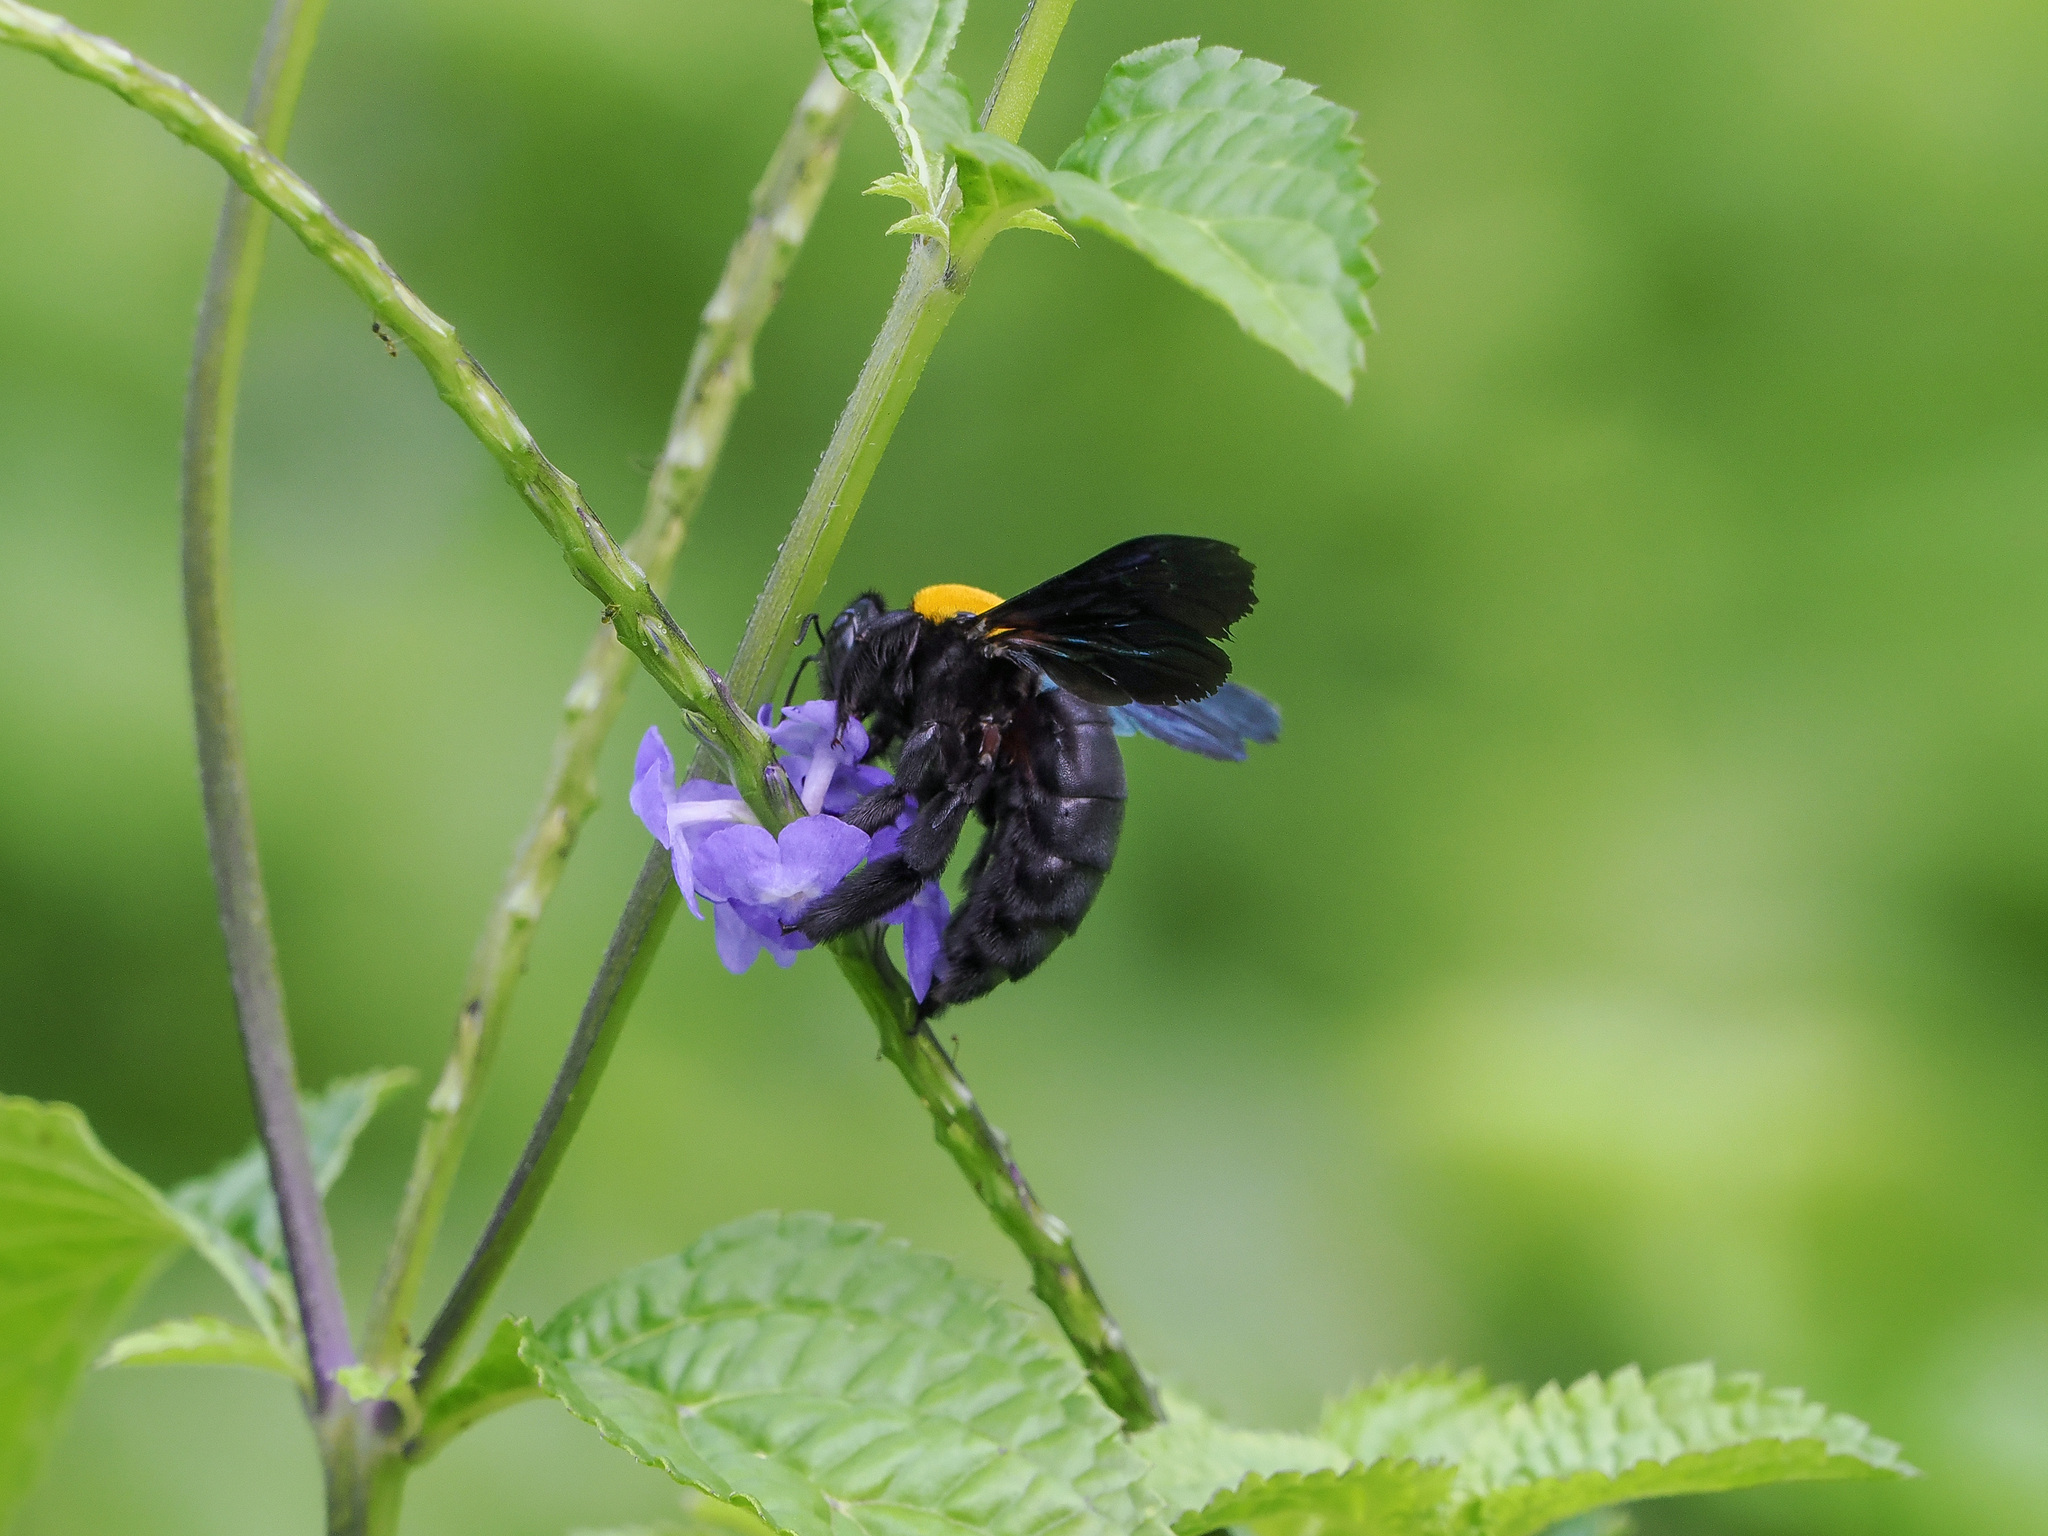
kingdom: Animalia
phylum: Arthropoda
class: Insecta
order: Hymenoptera
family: Apidae
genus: Xylocopa
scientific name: Xylocopa aestuans
